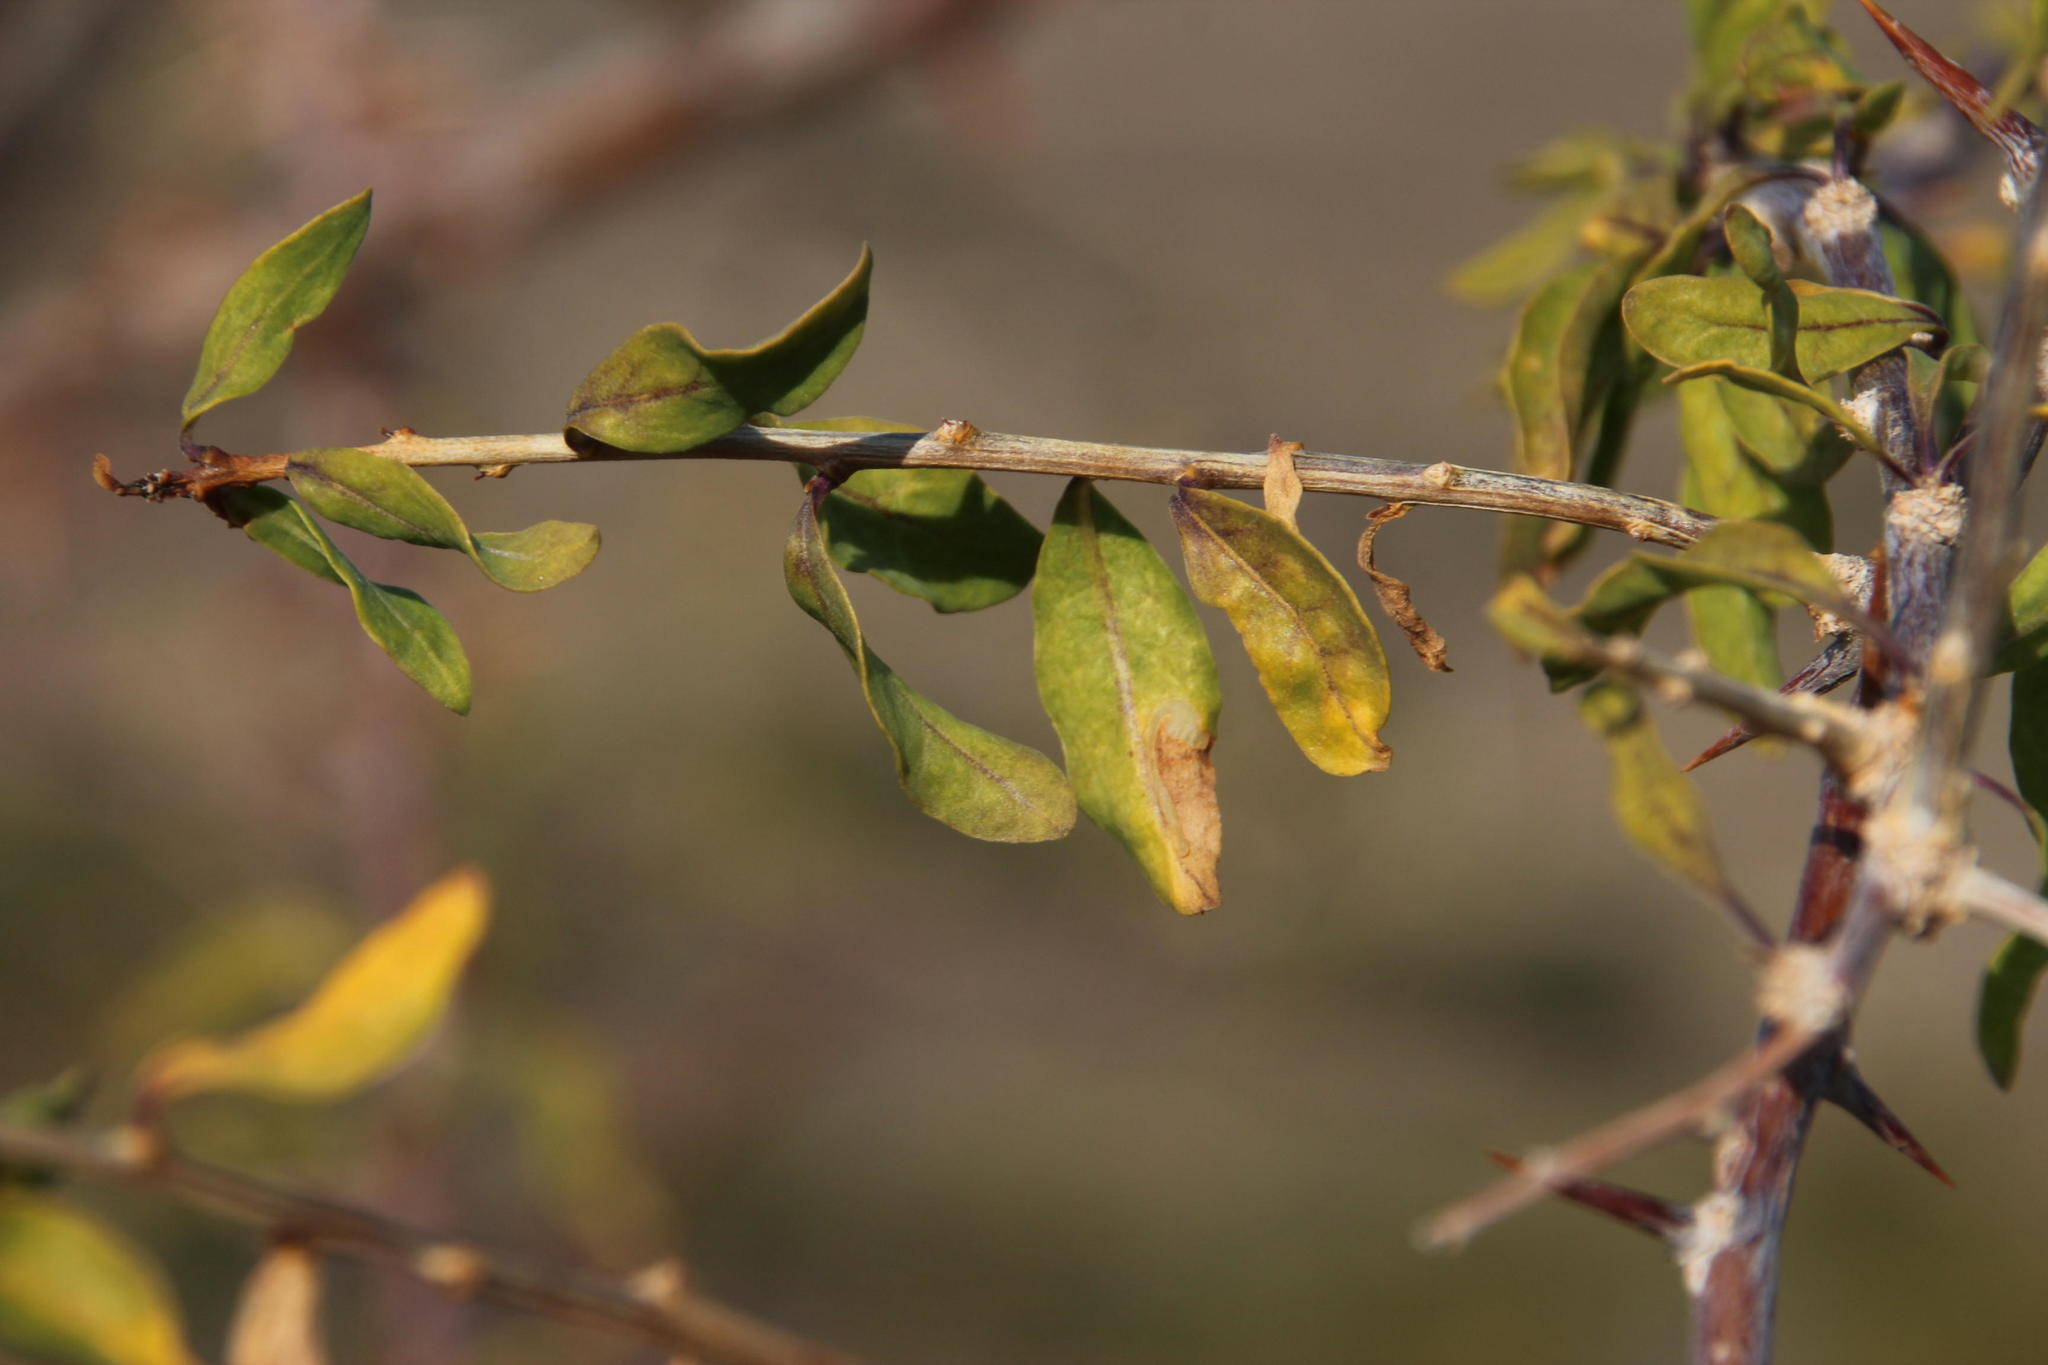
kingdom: Plantae
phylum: Tracheophyta
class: Magnoliopsida
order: Solanales
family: Solanaceae
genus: Lycium
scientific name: Lycium oxycarpum
